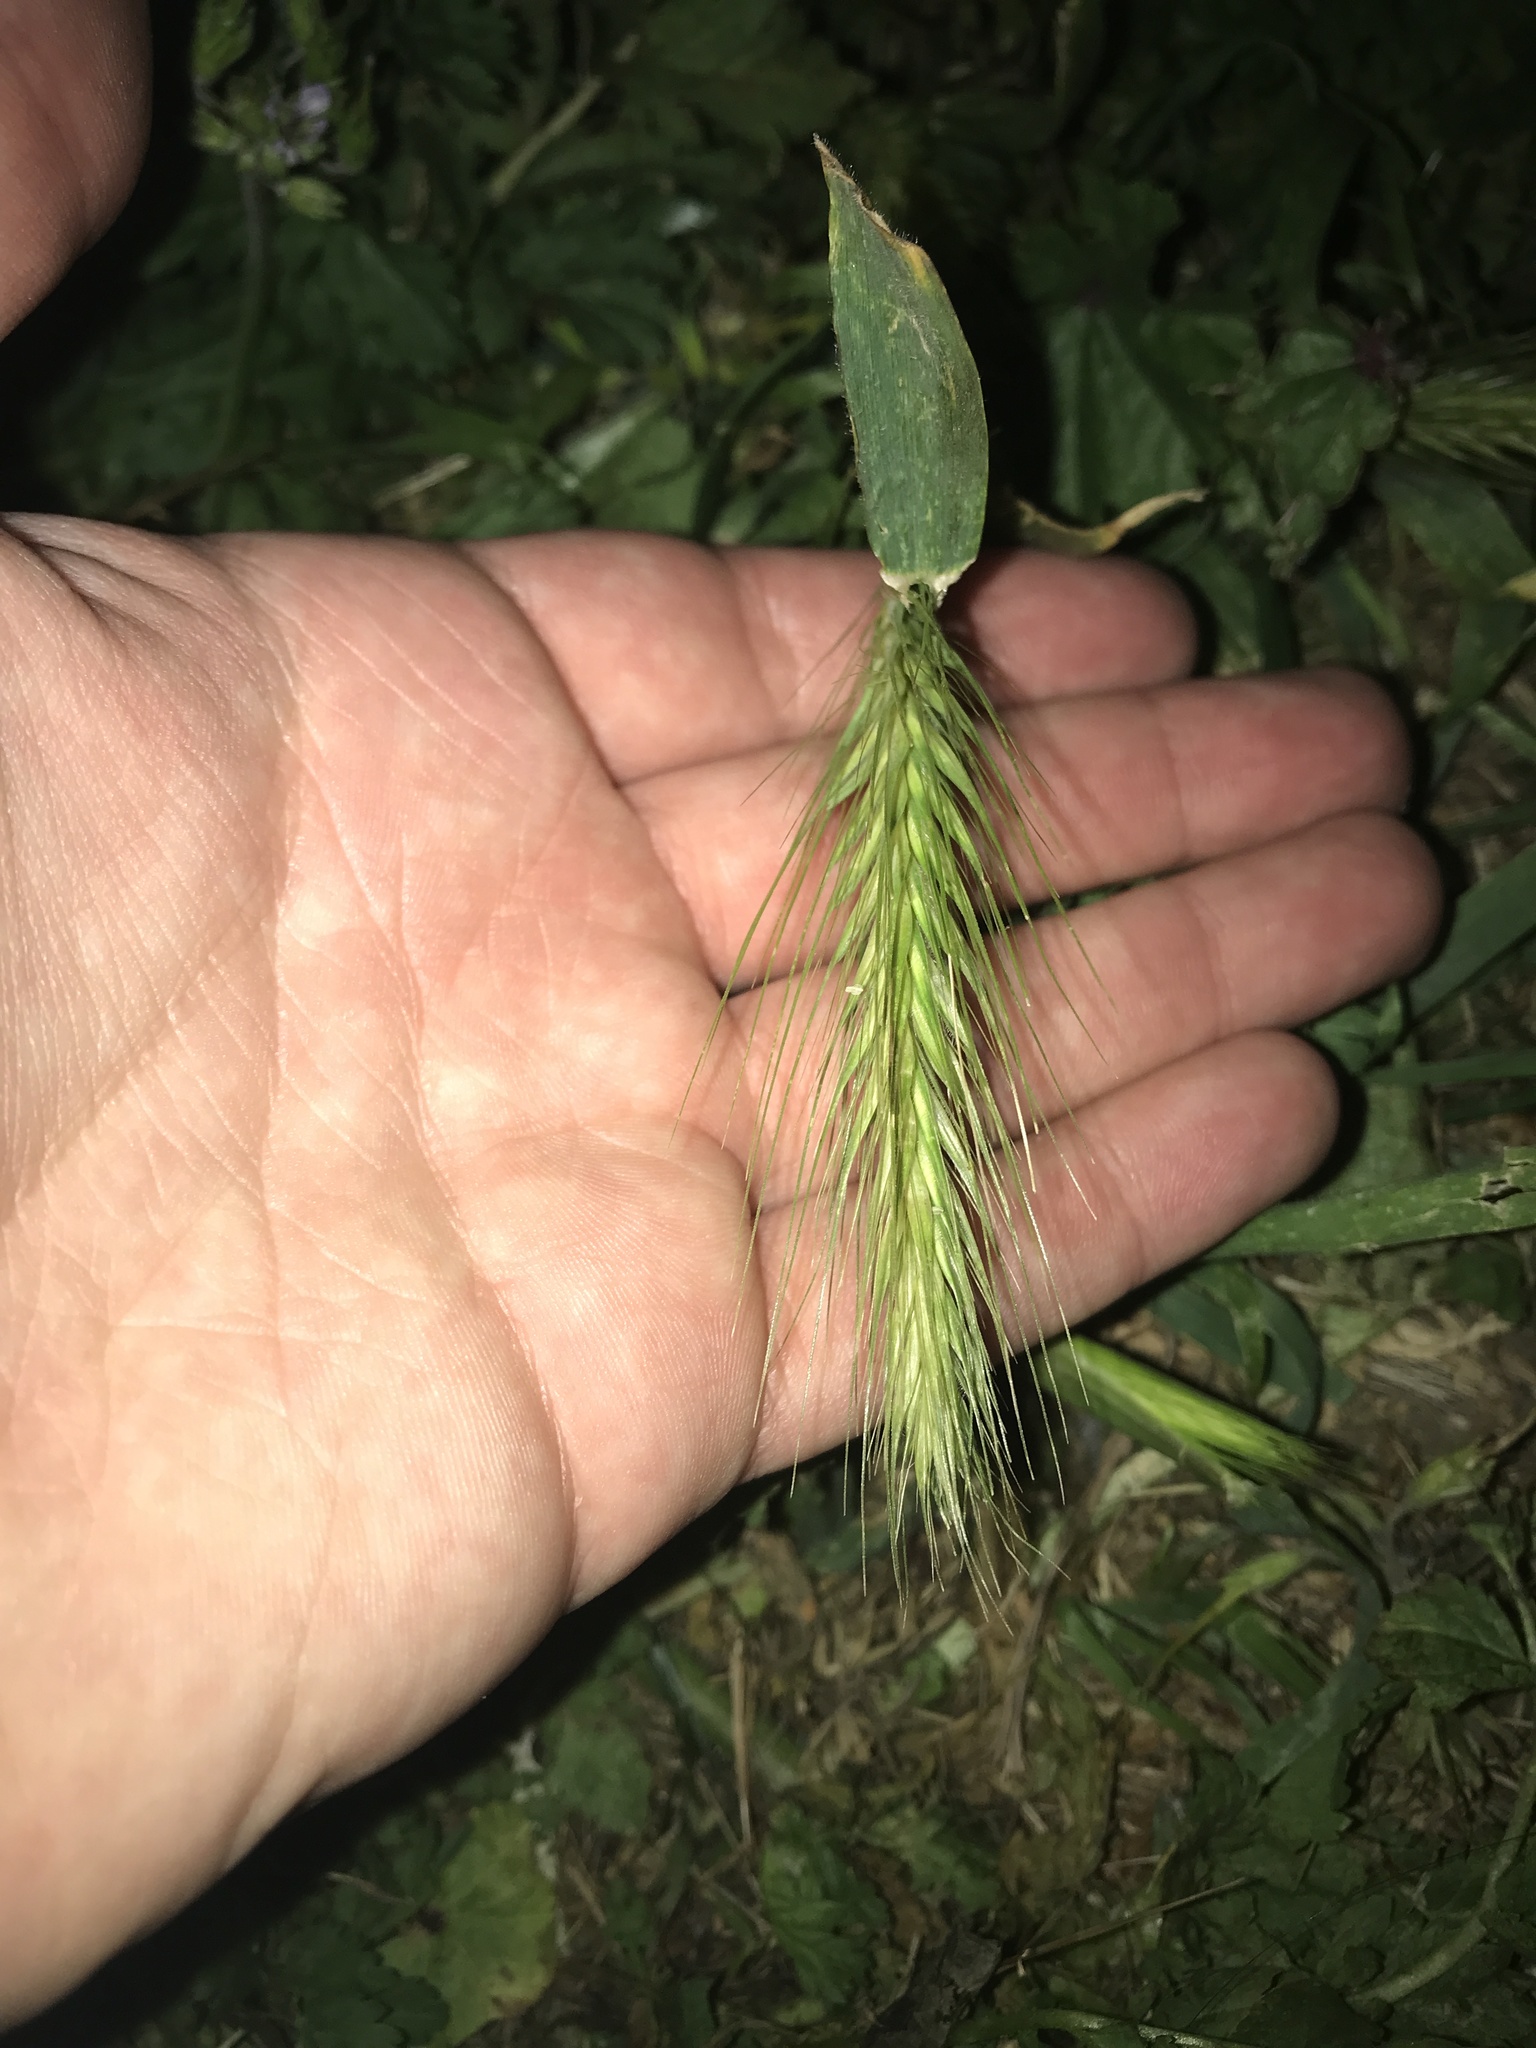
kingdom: Plantae
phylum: Tracheophyta
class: Liliopsida
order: Poales
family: Poaceae
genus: Hordeum
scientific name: Hordeum murinum
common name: Wall barley
